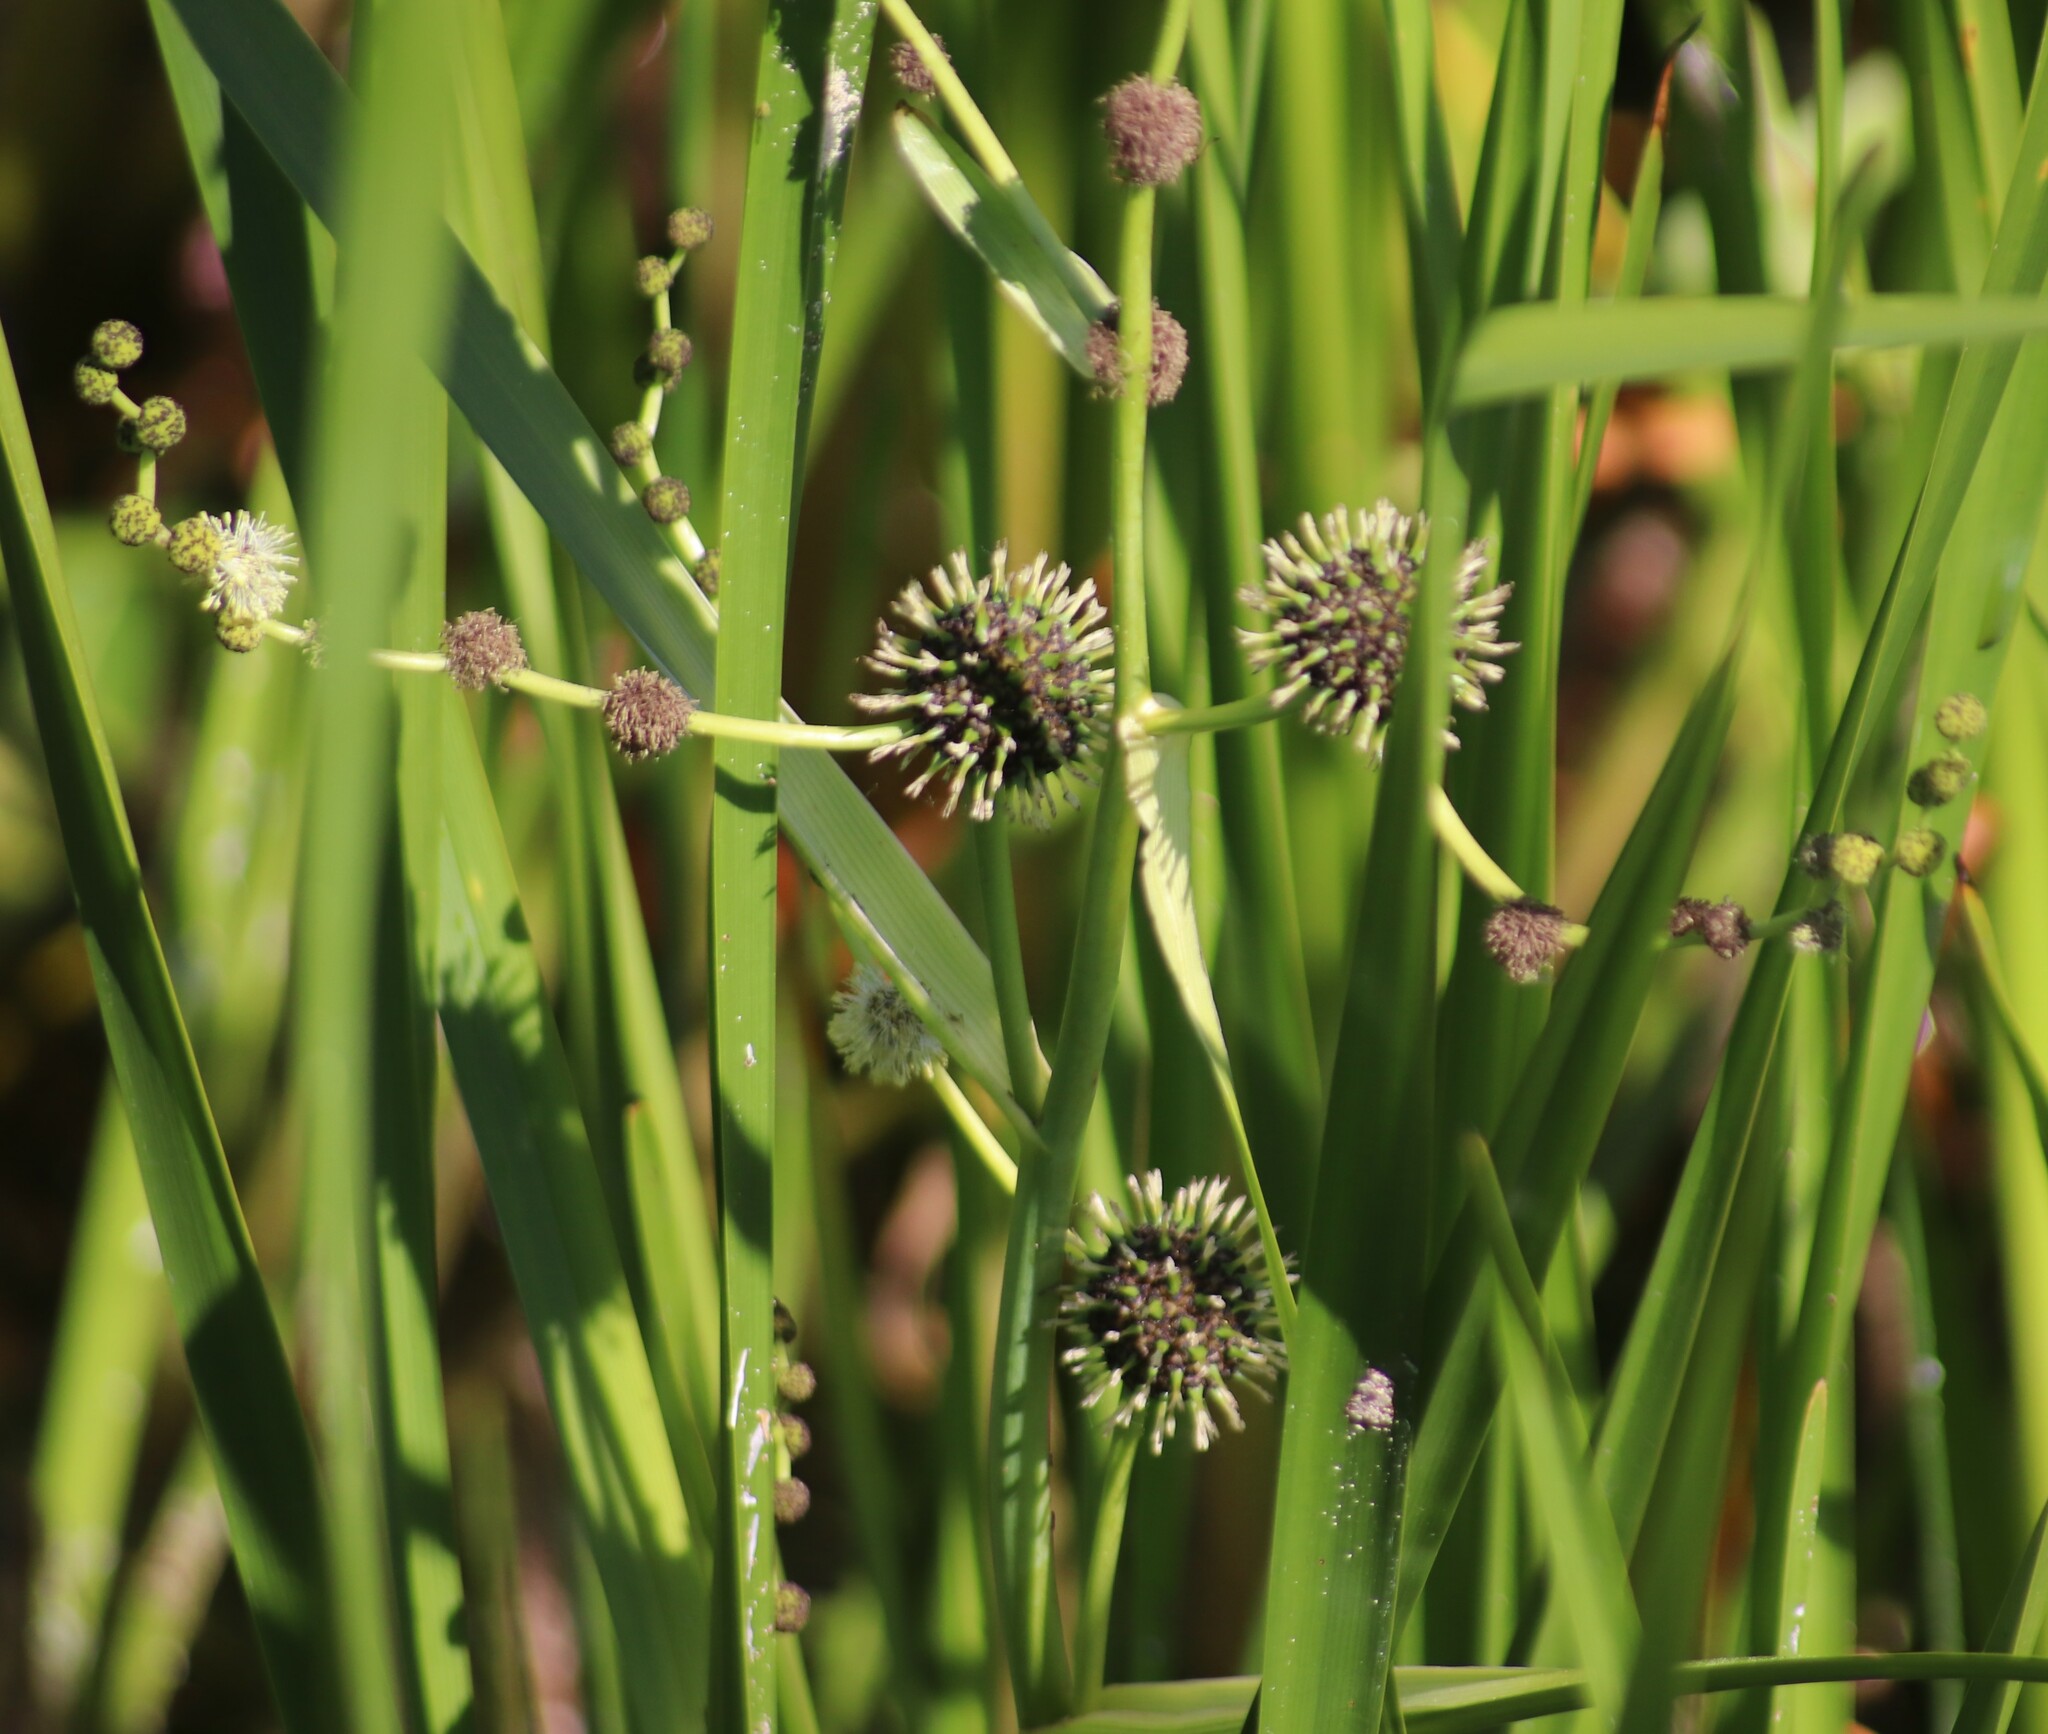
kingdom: Plantae
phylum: Tracheophyta
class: Liliopsida
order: Poales
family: Typhaceae
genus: Sparganium
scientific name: Sparganium eurycarpum
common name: Broad-fruited burreed
